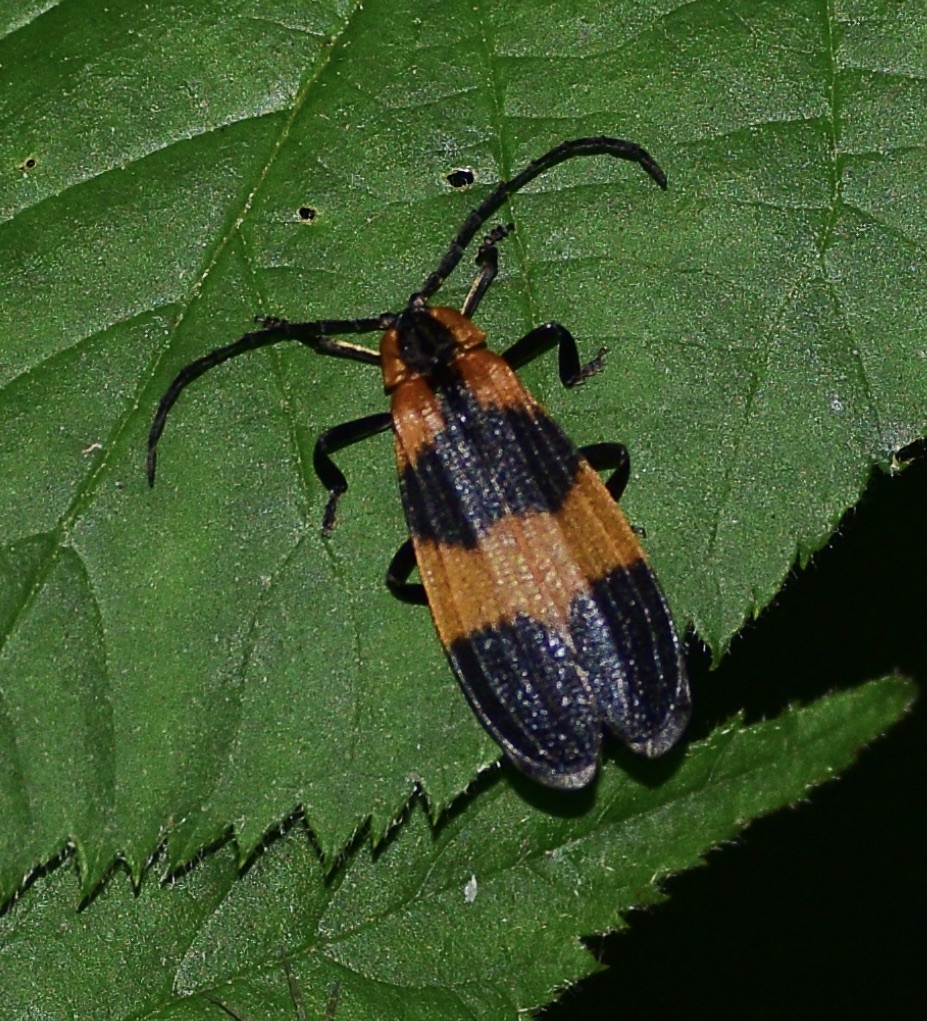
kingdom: Animalia
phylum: Arthropoda
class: Insecta
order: Coleoptera
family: Lycidae
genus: Calopteron
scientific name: Calopteron reticulatum
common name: Banded net-winged beetle
